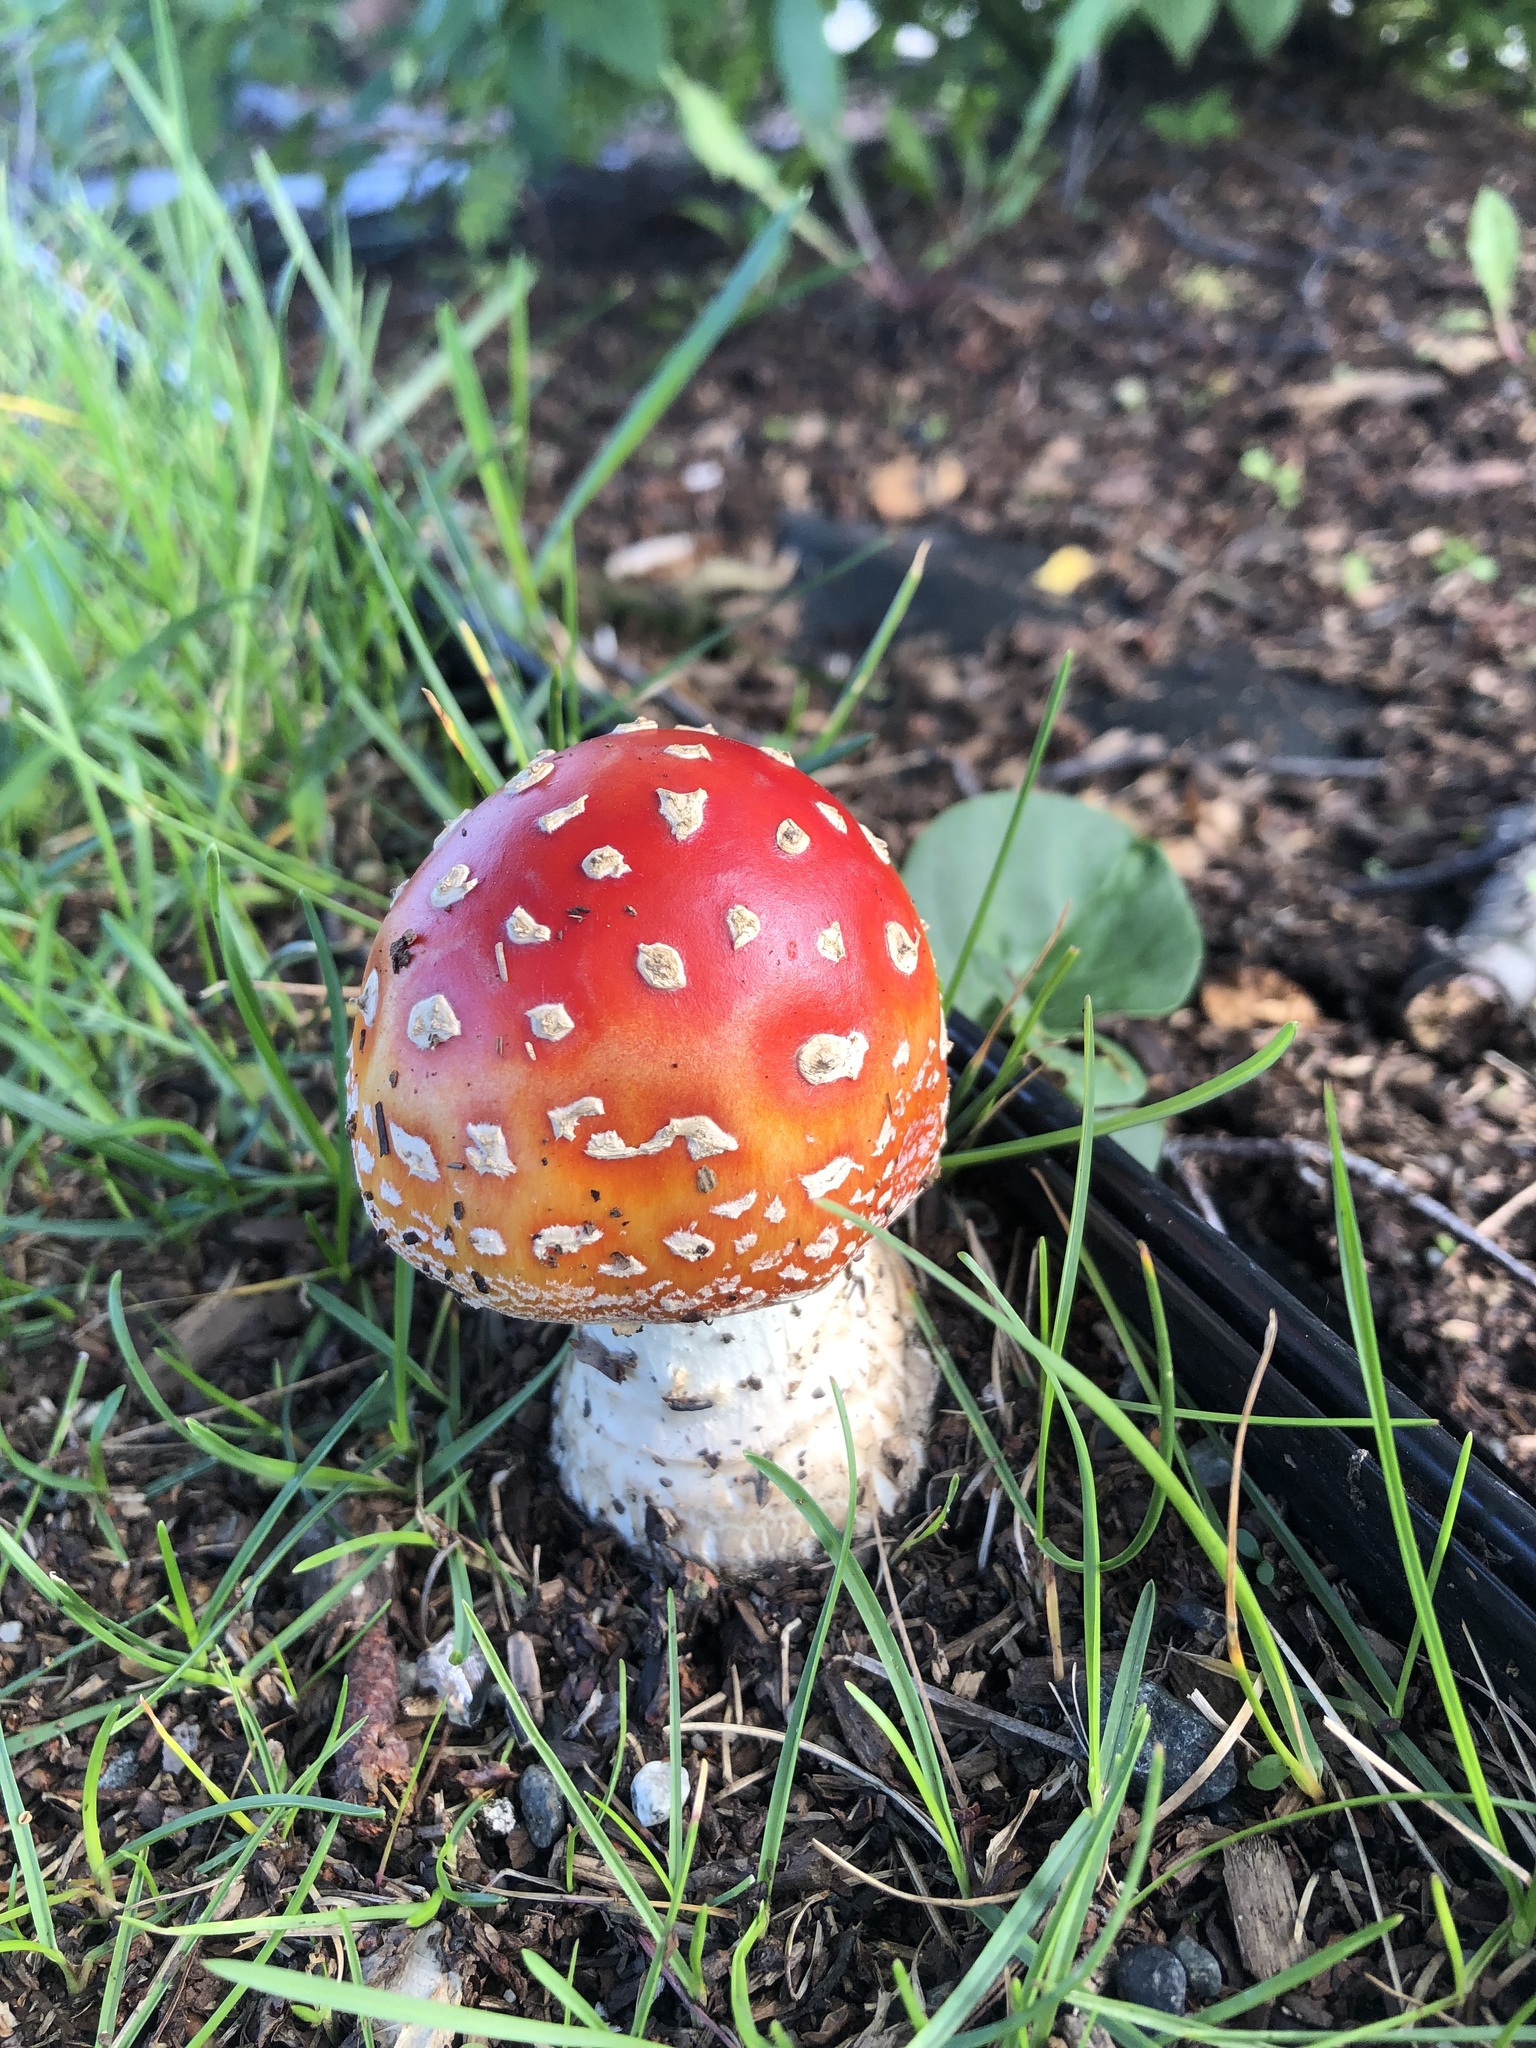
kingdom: Fungi
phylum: Basidiomycota
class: Agaricomycetes
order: Agaricales
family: Amanitaceae
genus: Amanita
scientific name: Amanita muscaria
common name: Fly agaric
